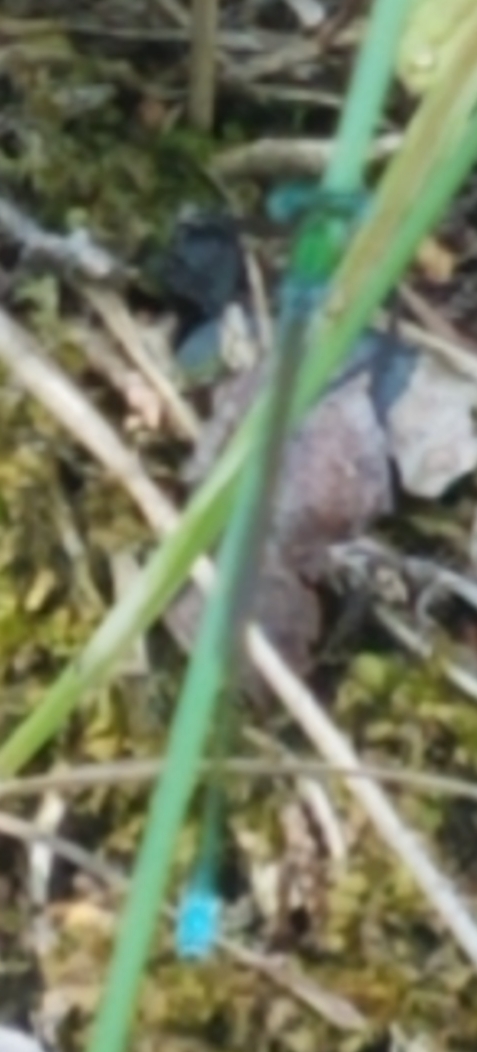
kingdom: Animalia
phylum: Arthropoda
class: Insecta
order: Odonata
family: Coenagrionidae
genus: Nehalennia
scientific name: Nehalennia irene
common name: Sedge sprite
